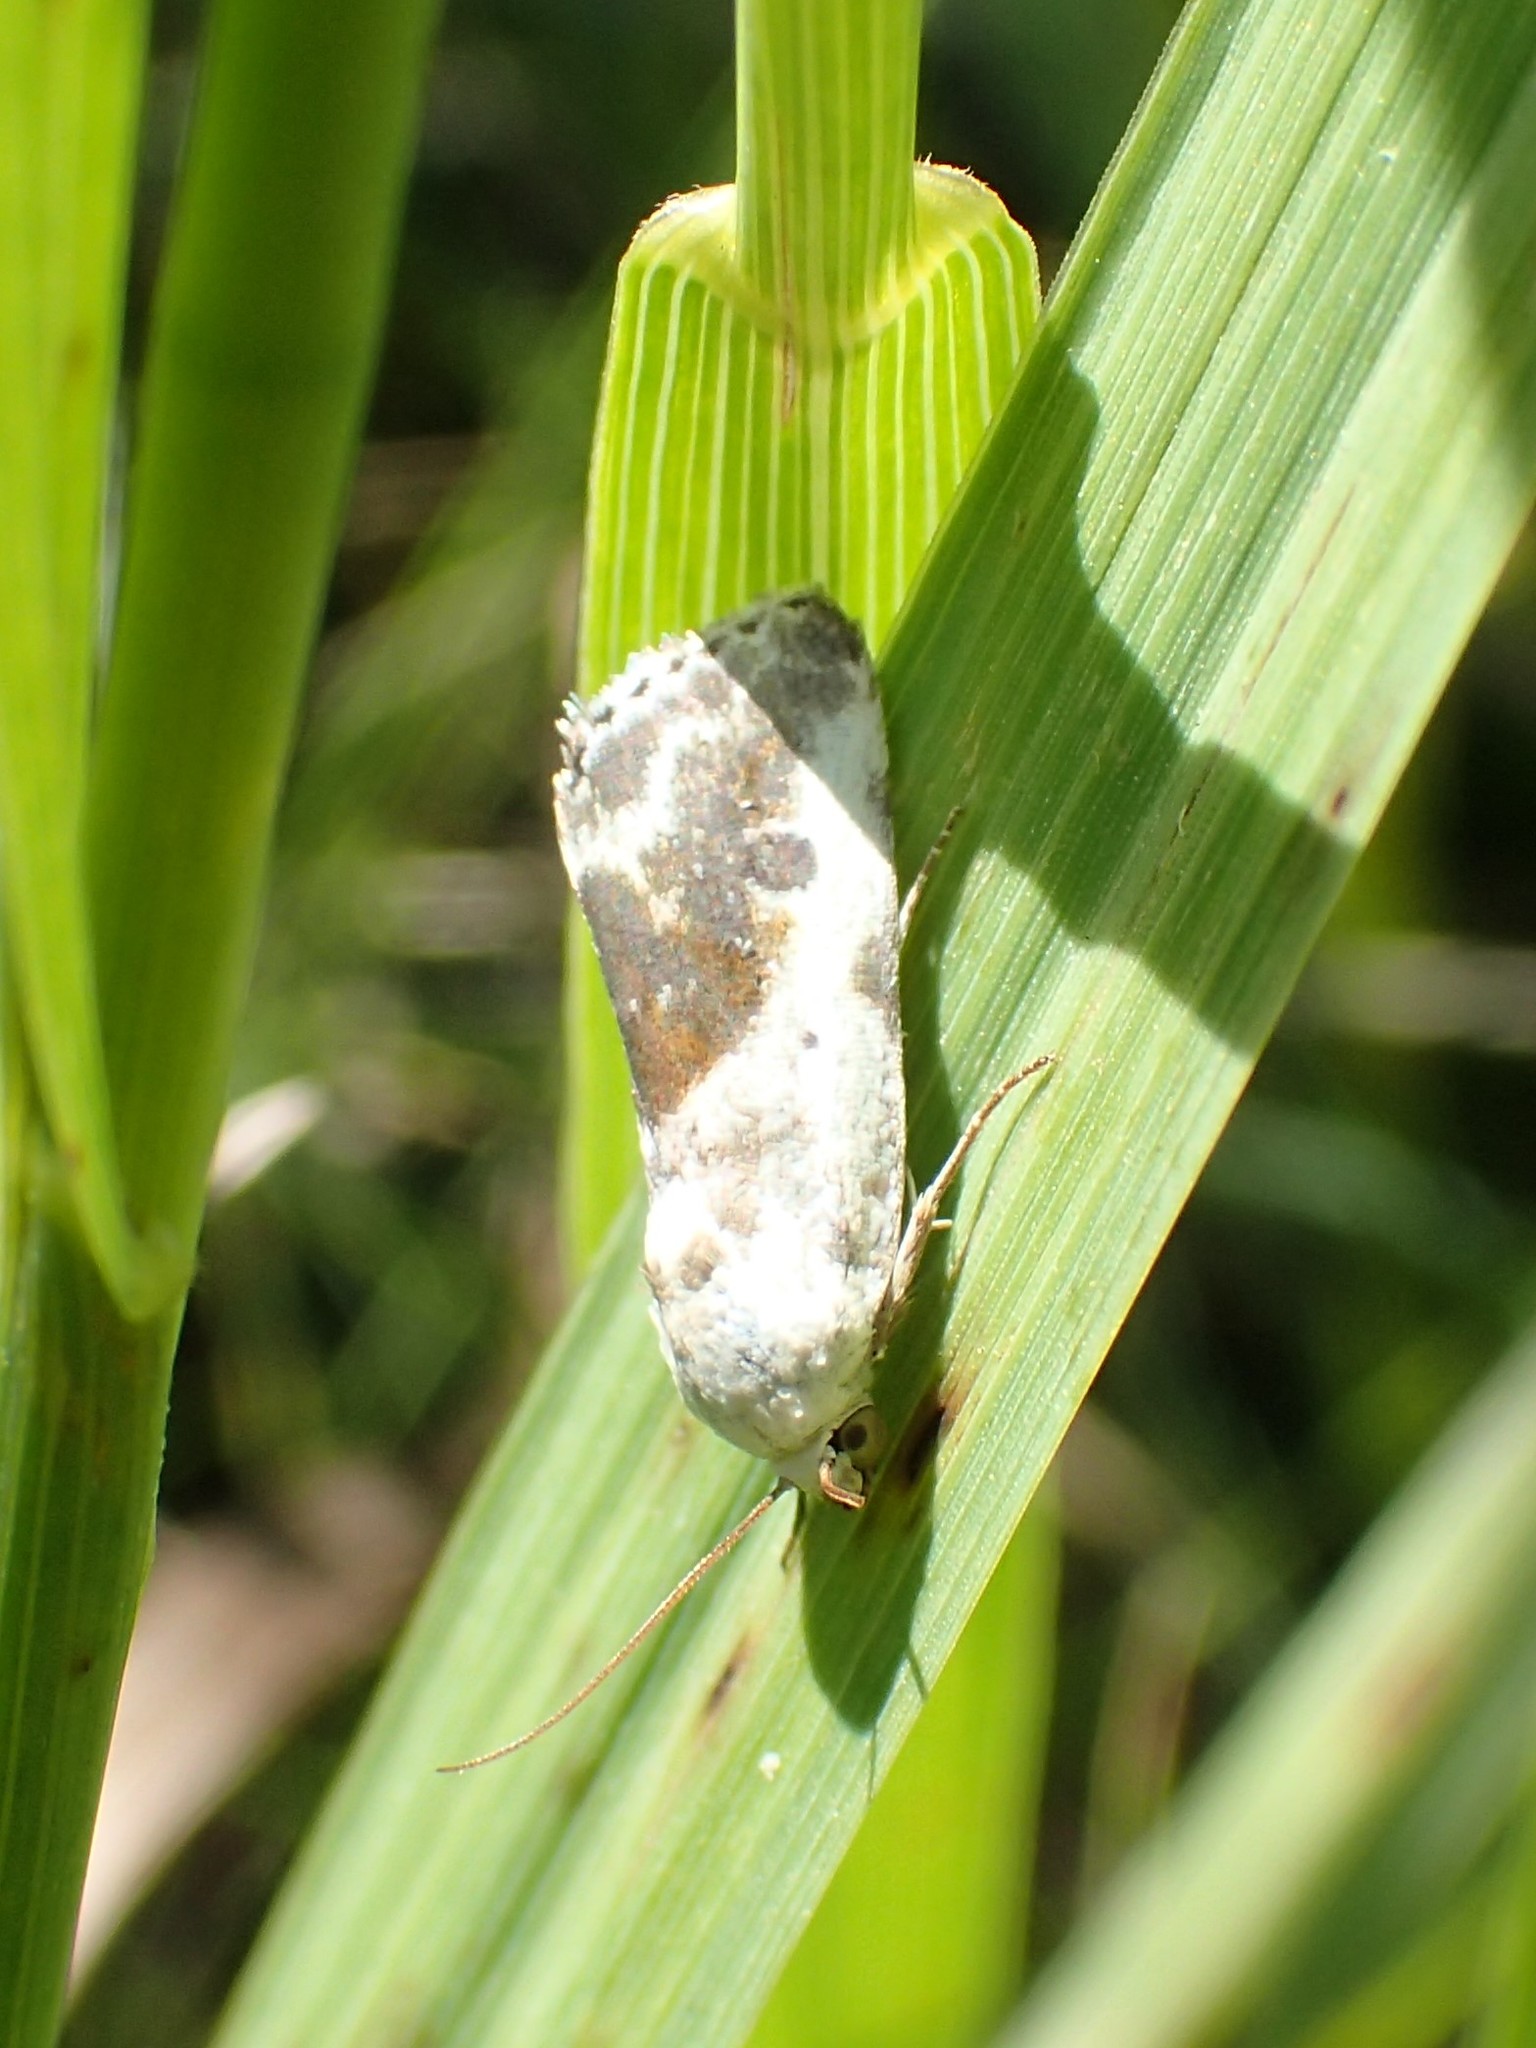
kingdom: Animalia
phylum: Arthropoda
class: Insecta
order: Lepidoptera
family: Noctuidae
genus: Acontia
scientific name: Acontia candefacta
